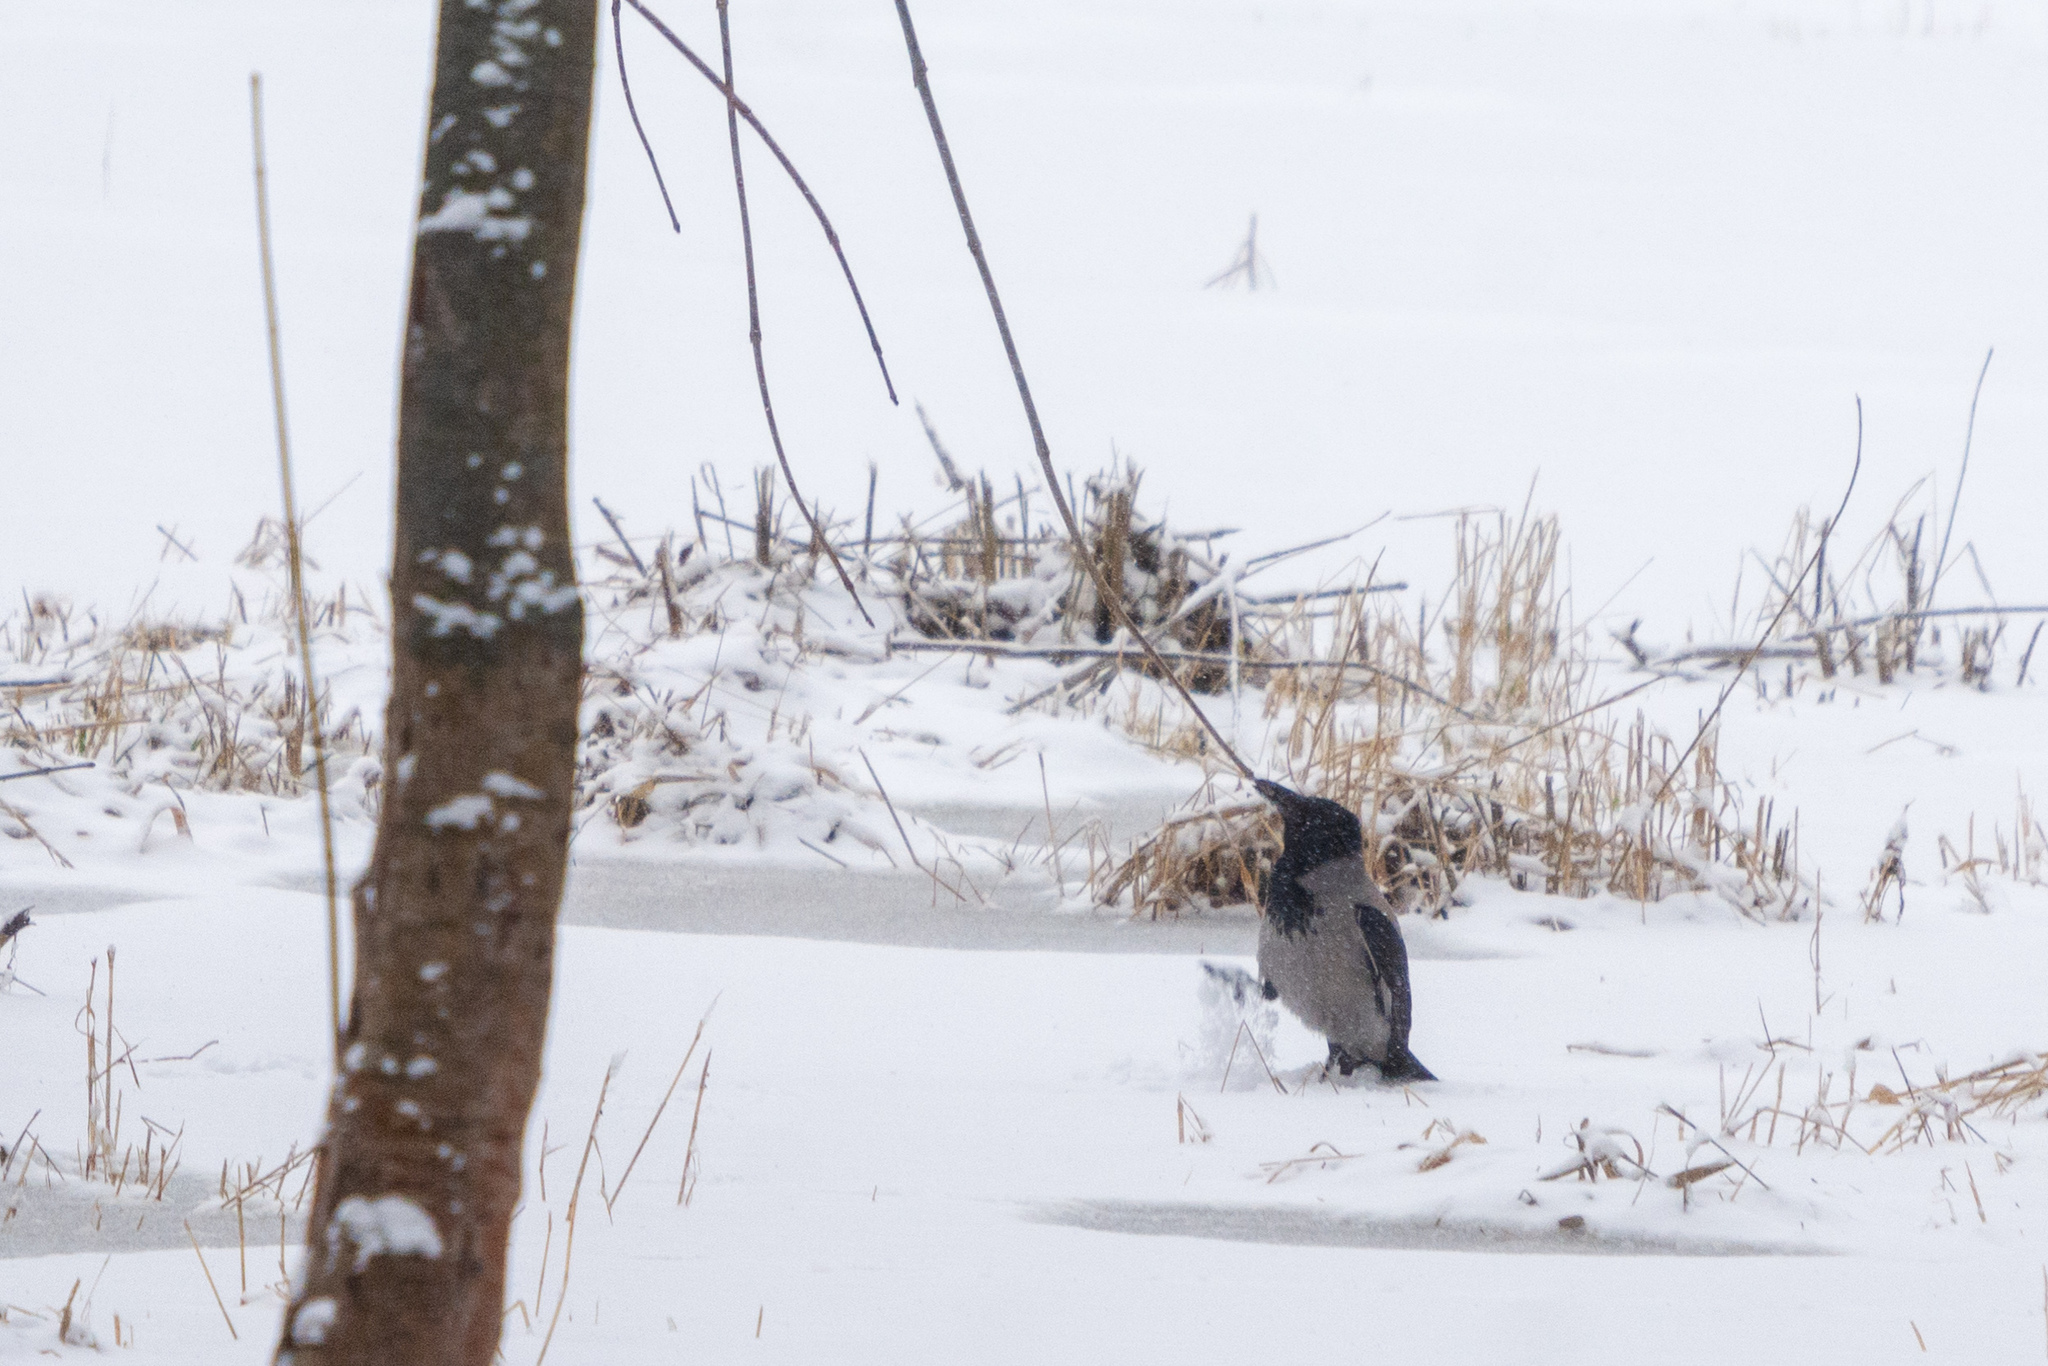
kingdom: Animalia
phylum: Chordata
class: Aves
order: Passeriformes
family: Corvidae
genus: Corvus
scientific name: Corvus cornix
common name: Hooded crow
